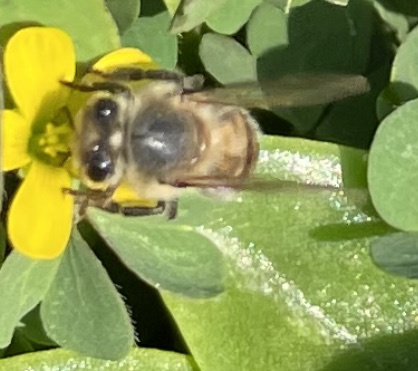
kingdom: Animalia
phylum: Arthropoda
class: Insecta
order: Hymenoptera
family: Apidae
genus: Apis
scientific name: Apis mellifera
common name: Honey bee
